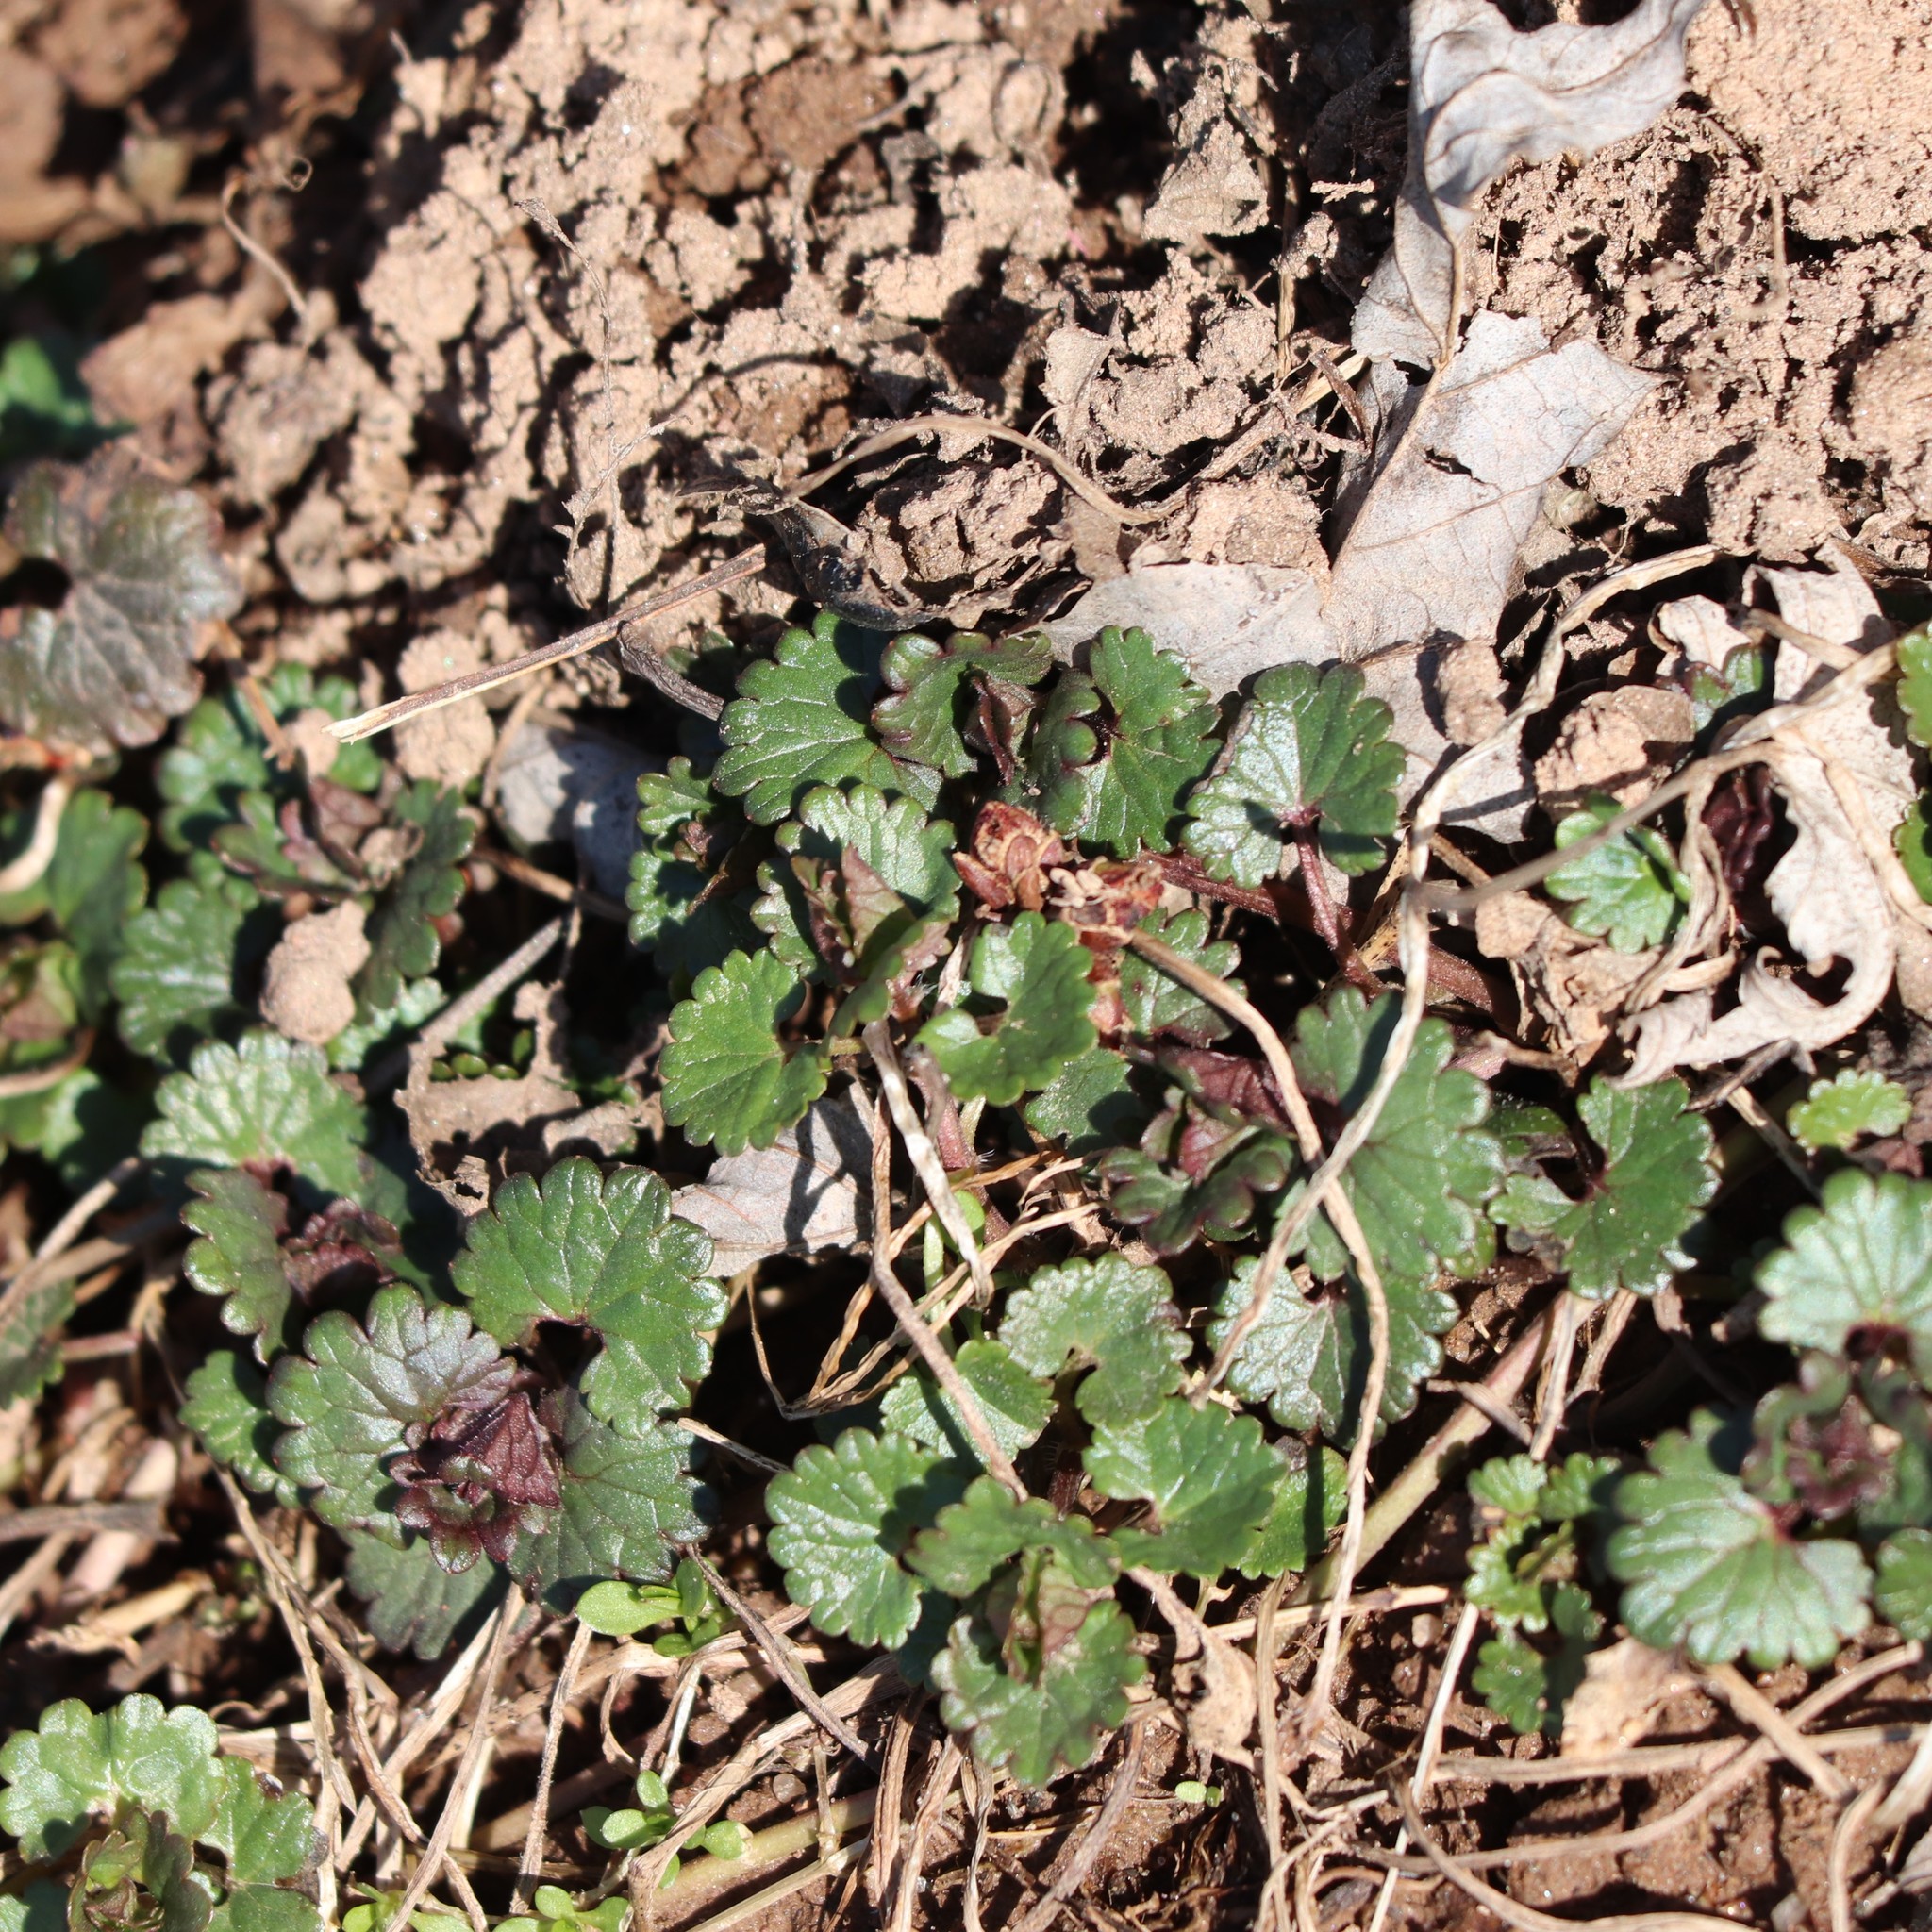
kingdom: Plantae
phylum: Tracheophyta
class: Magnoliopsida
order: Lamiales
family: Lamiaceae
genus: Glechoma
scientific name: Glechoma hederacea
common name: Ground ivy
